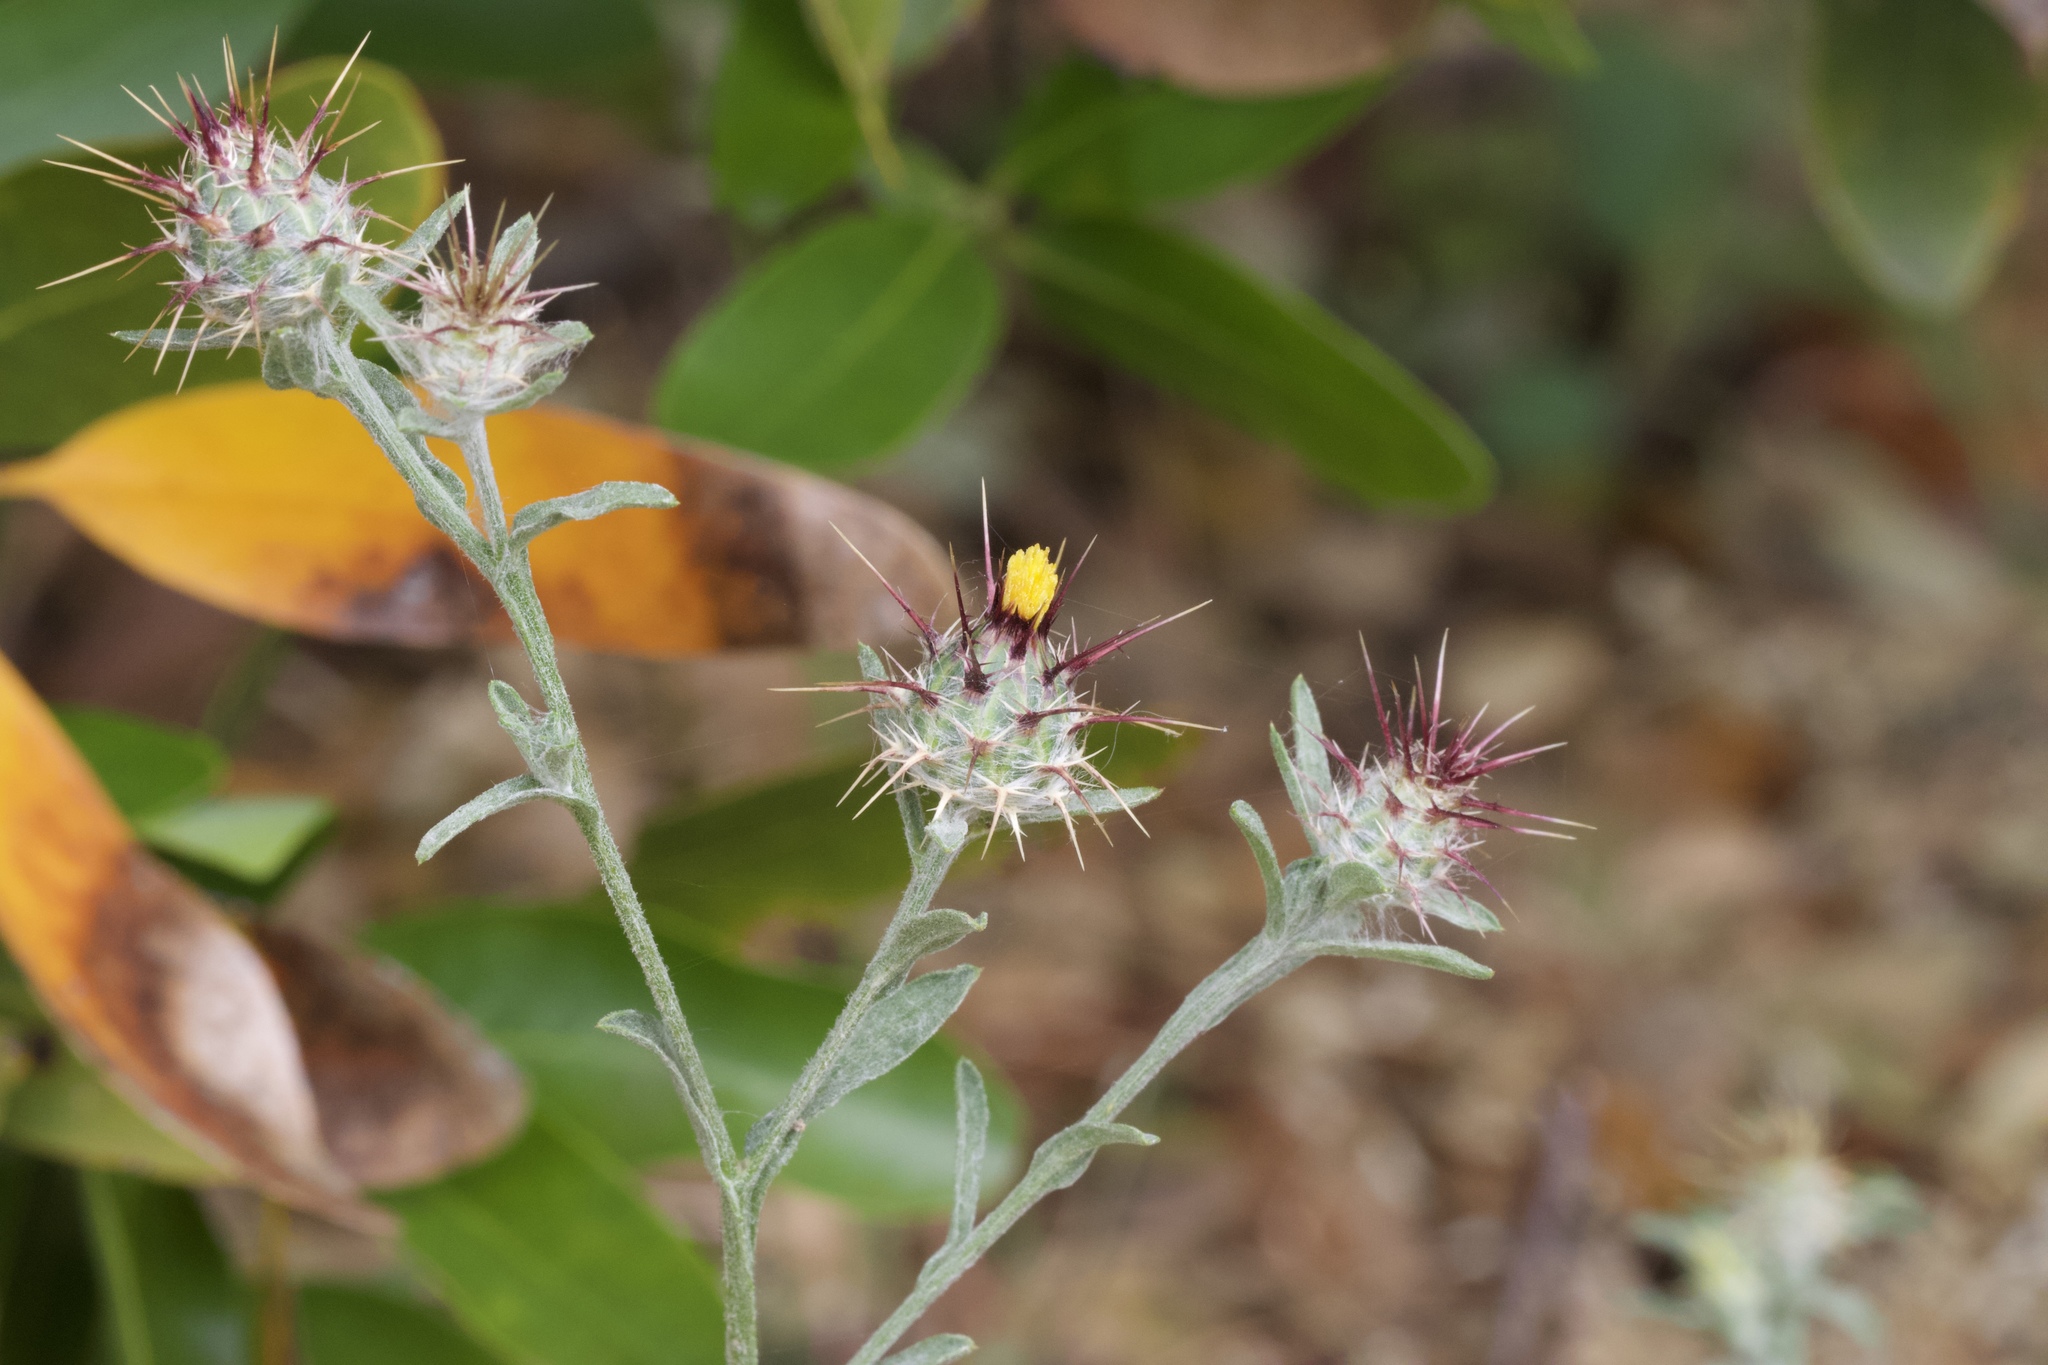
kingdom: Plantae
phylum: Tracheophyta
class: Magnoliopsida
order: Asterales
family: Asteraceae
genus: Centaurea
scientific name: Centaurea melitensis
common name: Maltese star-thistle
